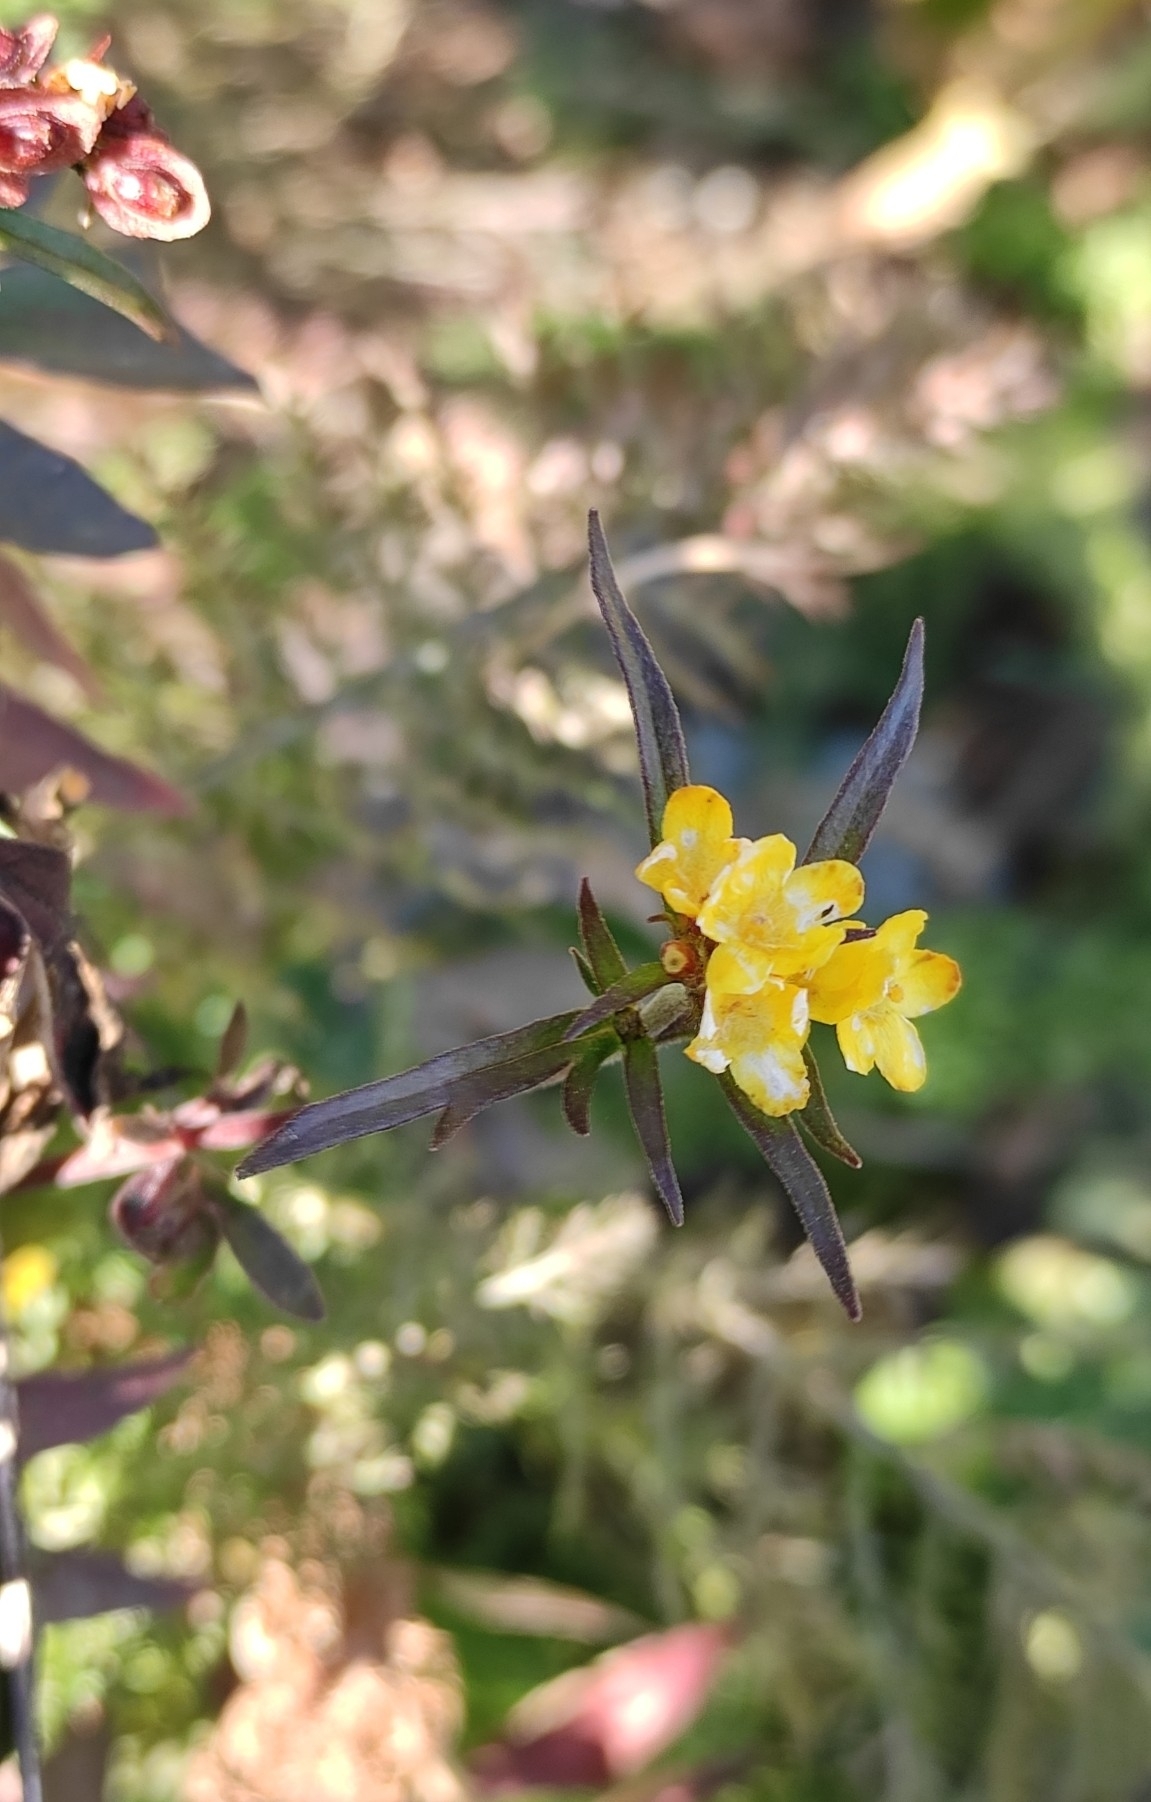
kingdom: Plantae
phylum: Tracheophyta
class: Magnoliopsida
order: Dipsacales
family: Caprifoliaceae
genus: Patrinia
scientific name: Patrinia rupestris
